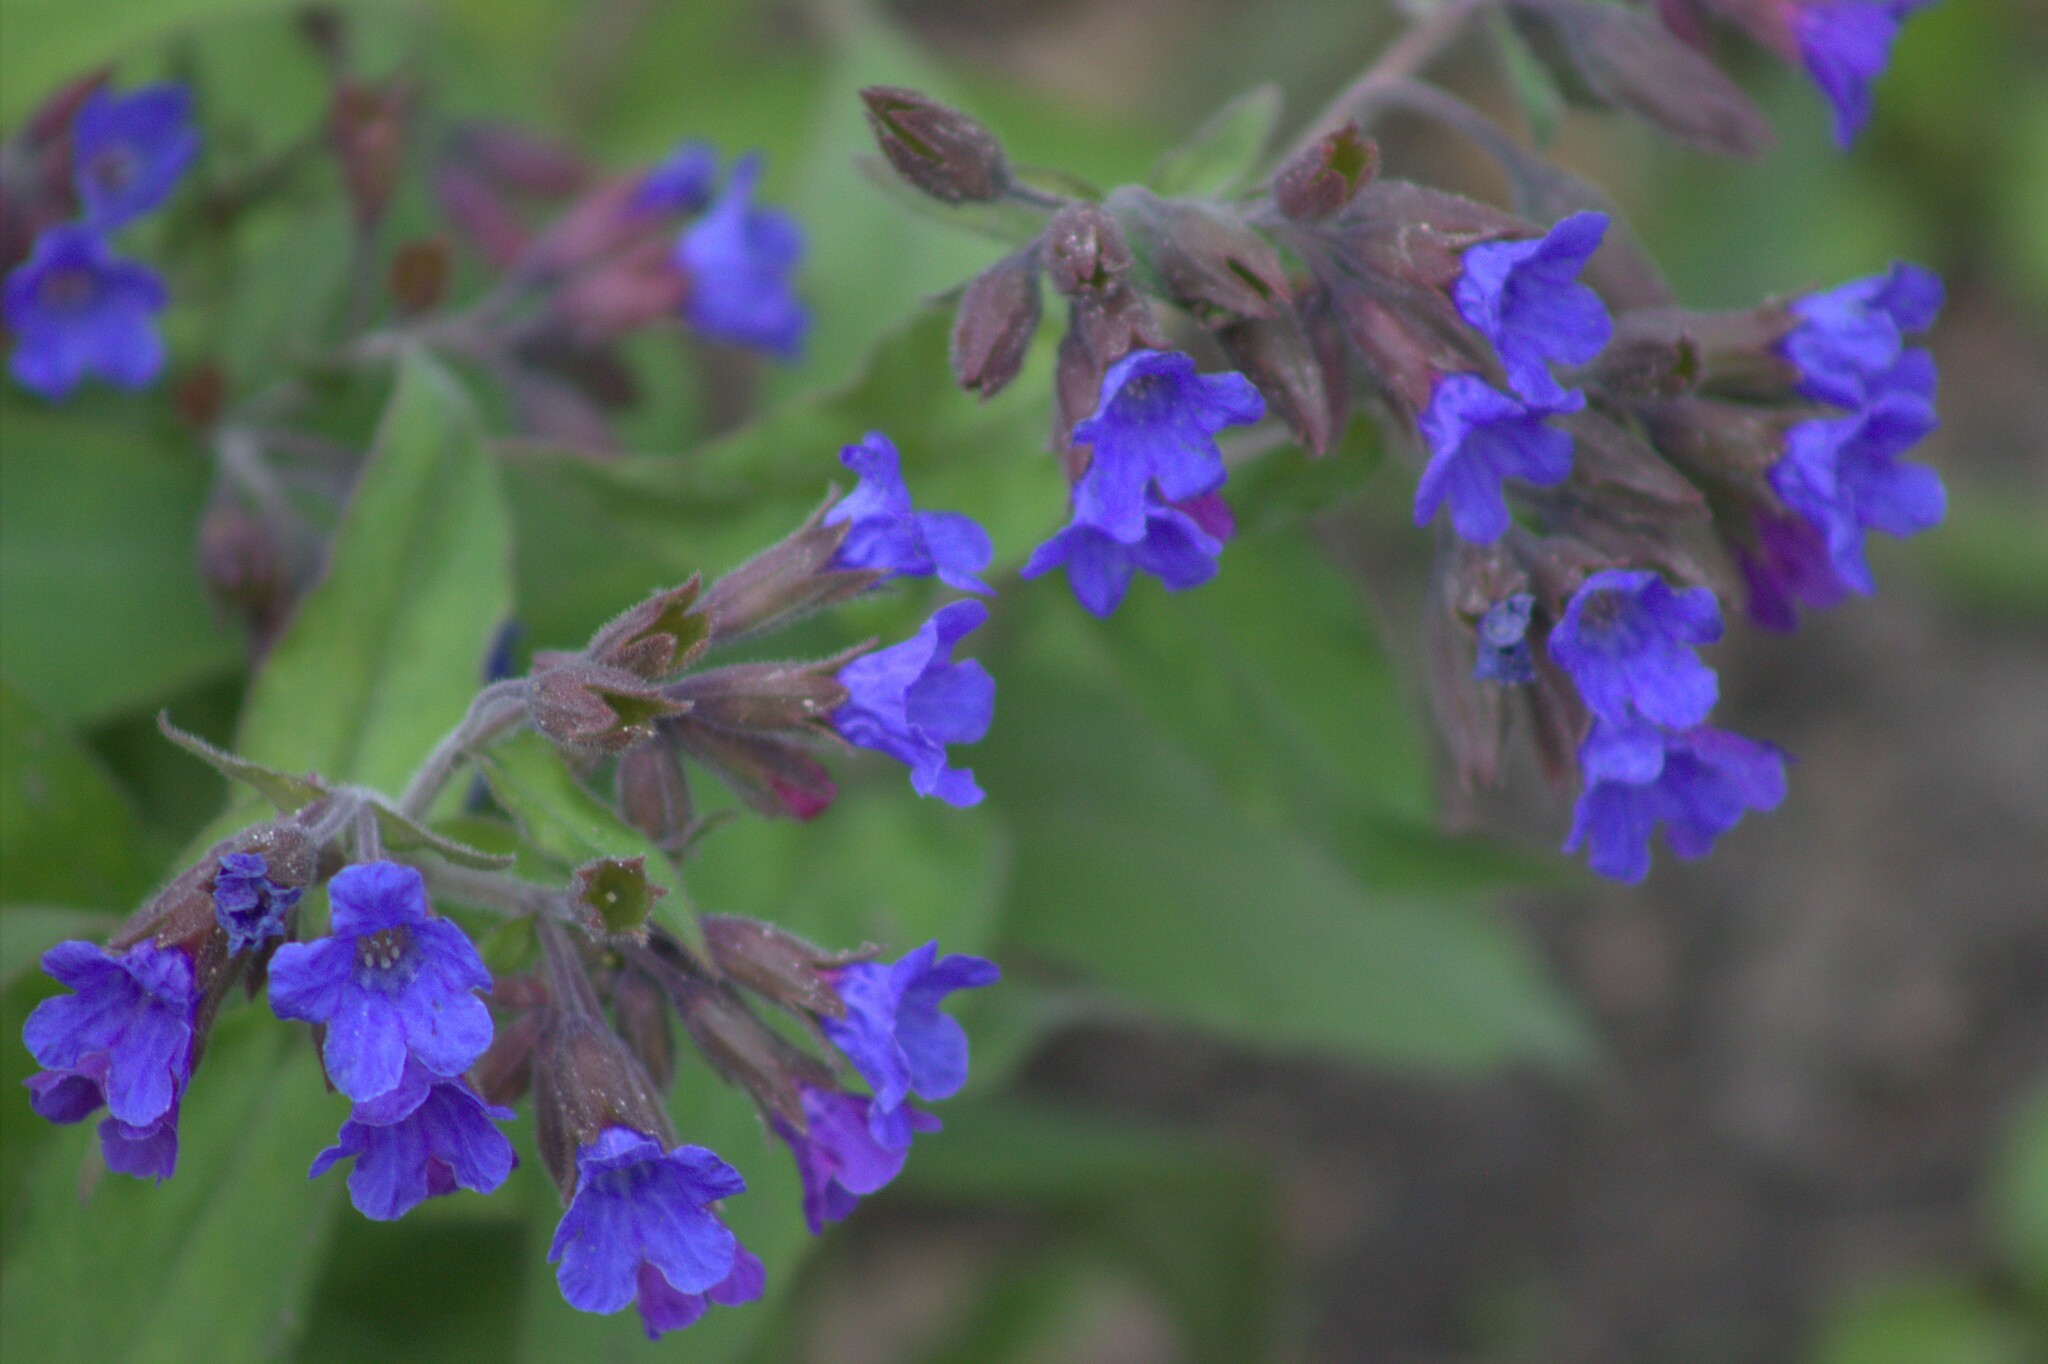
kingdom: Plantae
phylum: Tracheophyta
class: Magnoliopsida
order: Boraginales
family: Boraginaceae
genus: Pulmonaria
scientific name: Pulmonaria mollis
